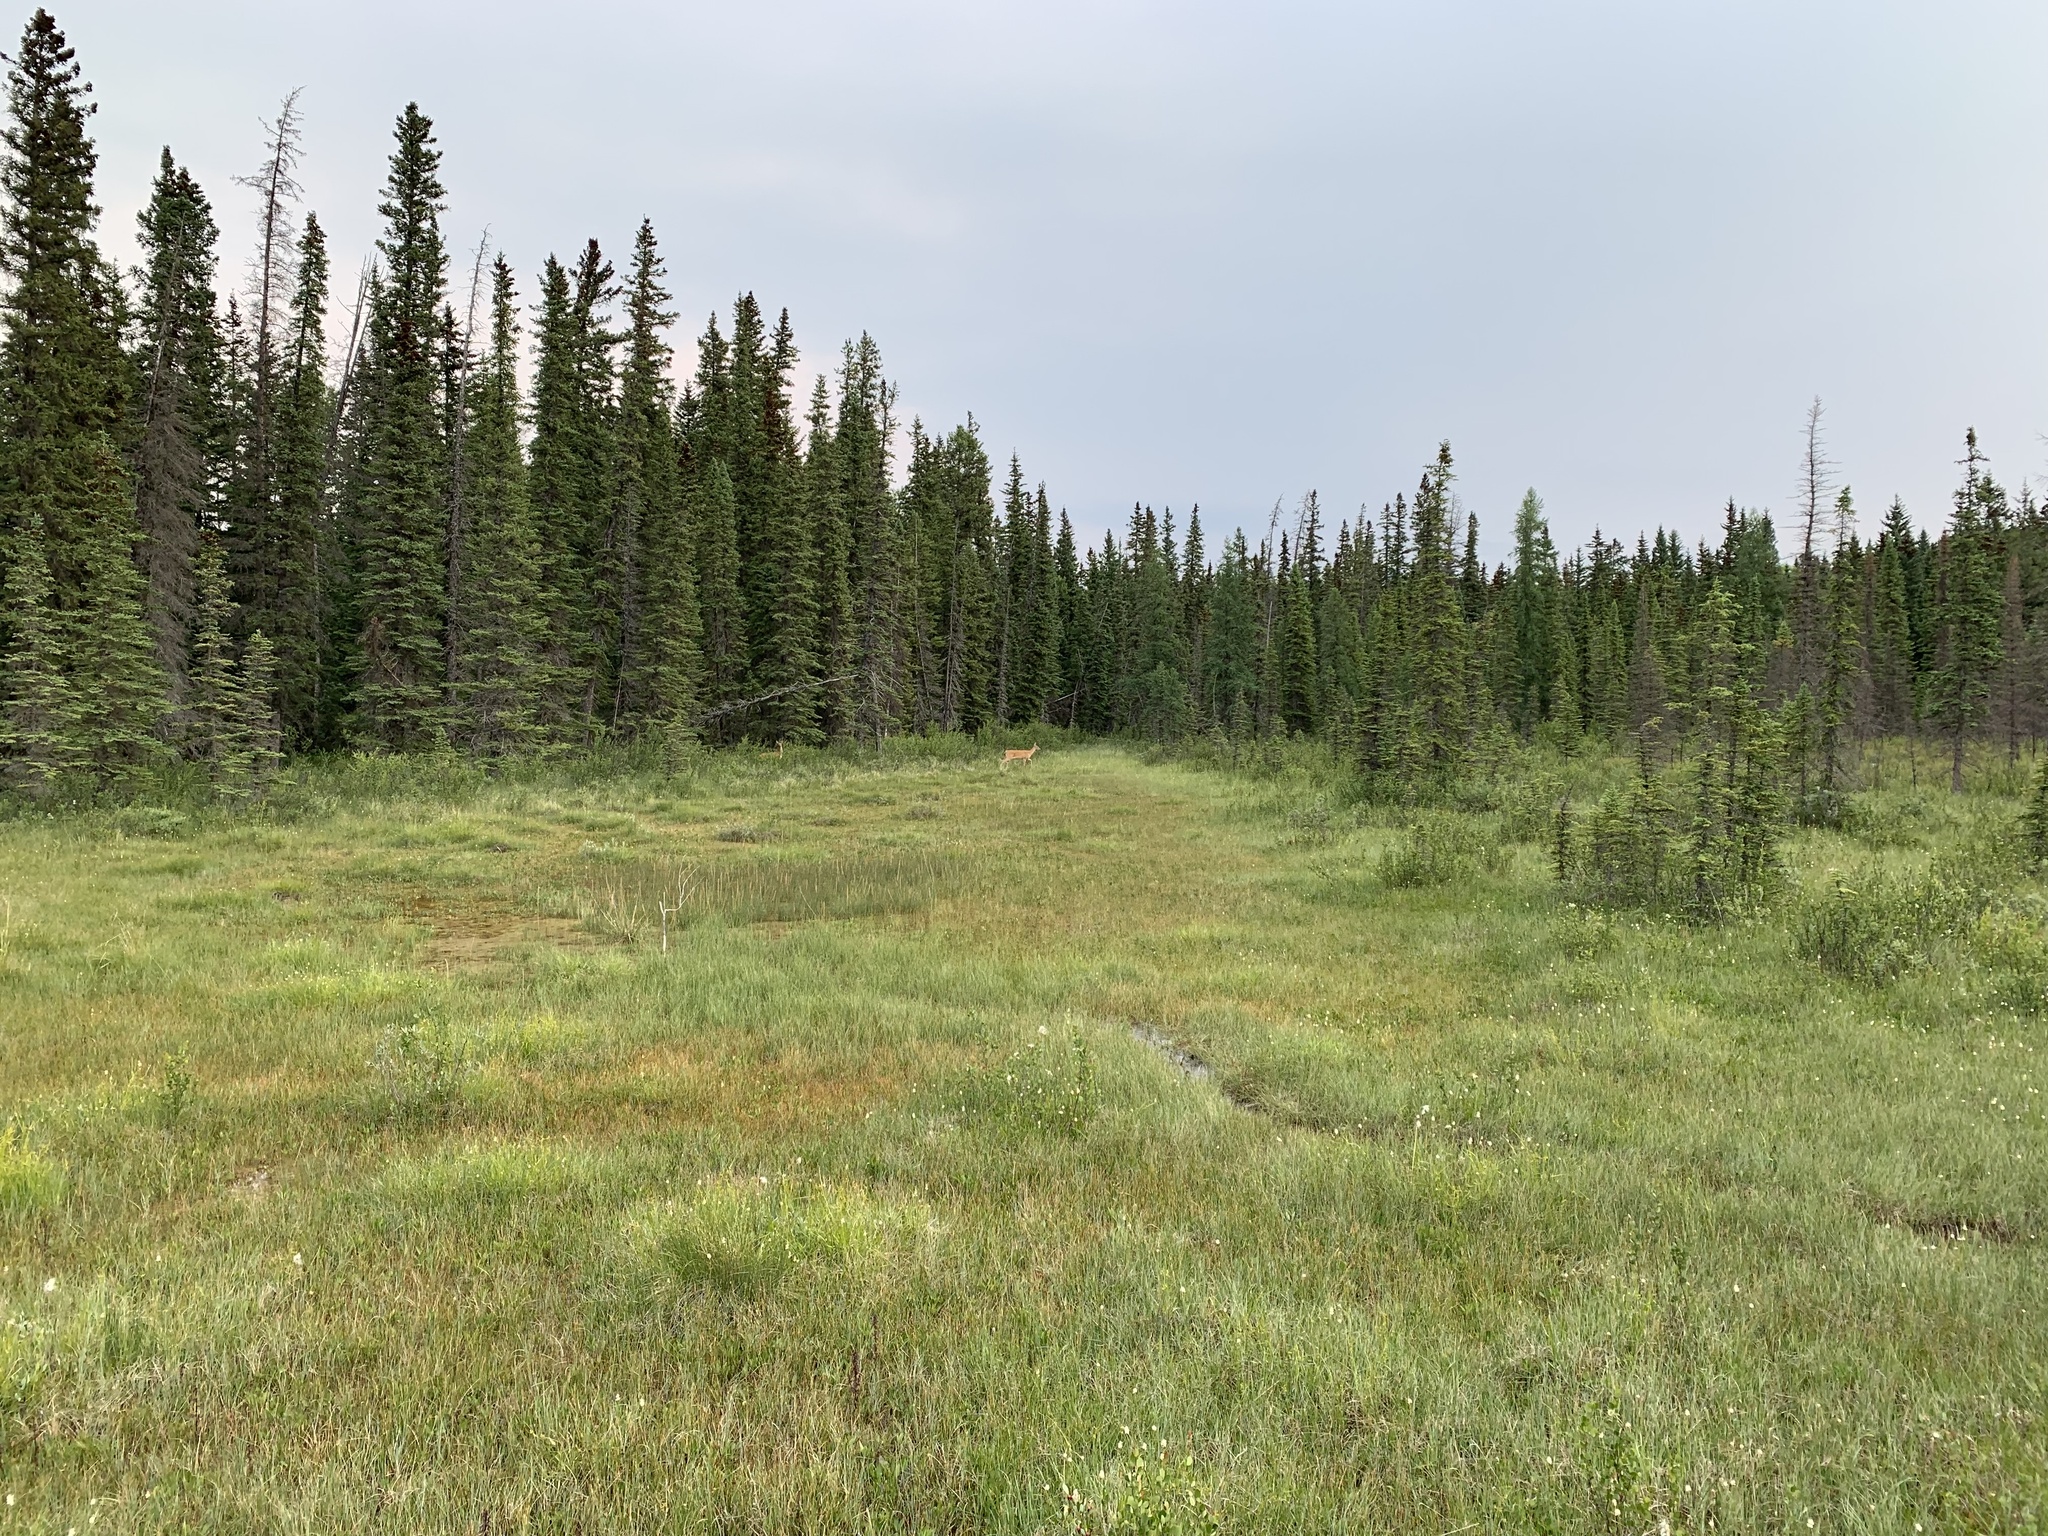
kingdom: Animalia
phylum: Chordata
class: Mammalia
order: Artiodactyla
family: Cervidae
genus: Odocoileus
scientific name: Odocoileus virginianus
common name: White-tailed deer
